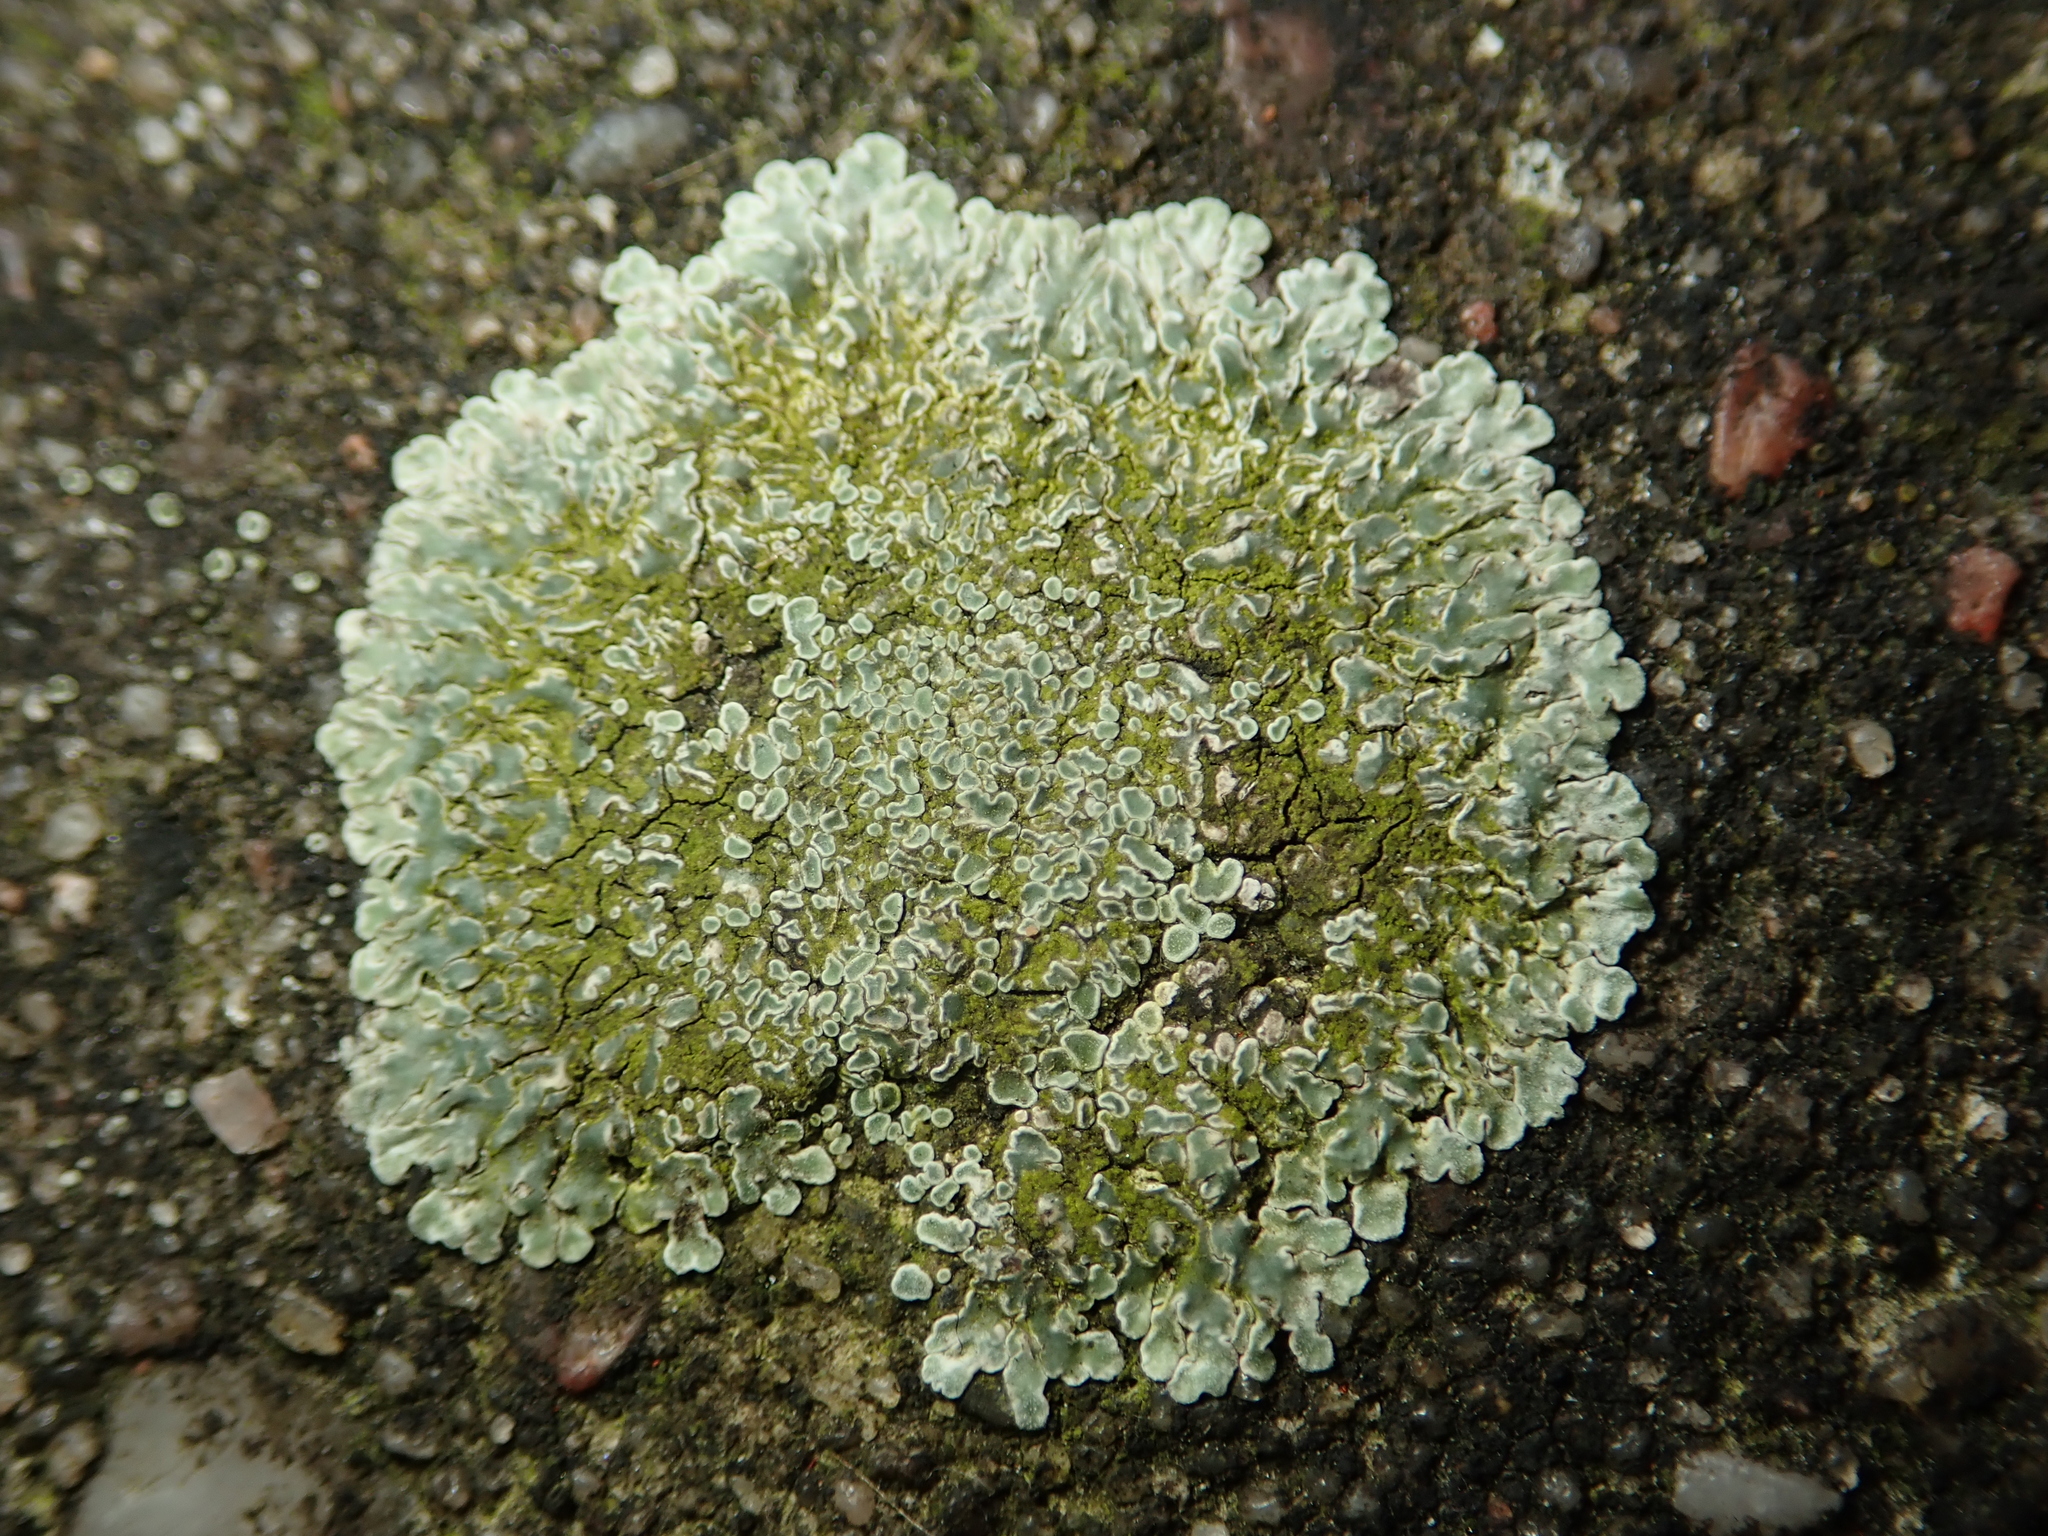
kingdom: Fungi
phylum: Ascomycota
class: Lecanoromycetes
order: Lecanorales
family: Lecanoraceae
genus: Protoparmeliopsis
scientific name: Protoparmeliopsis muralis
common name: Stonewall rim lichen
